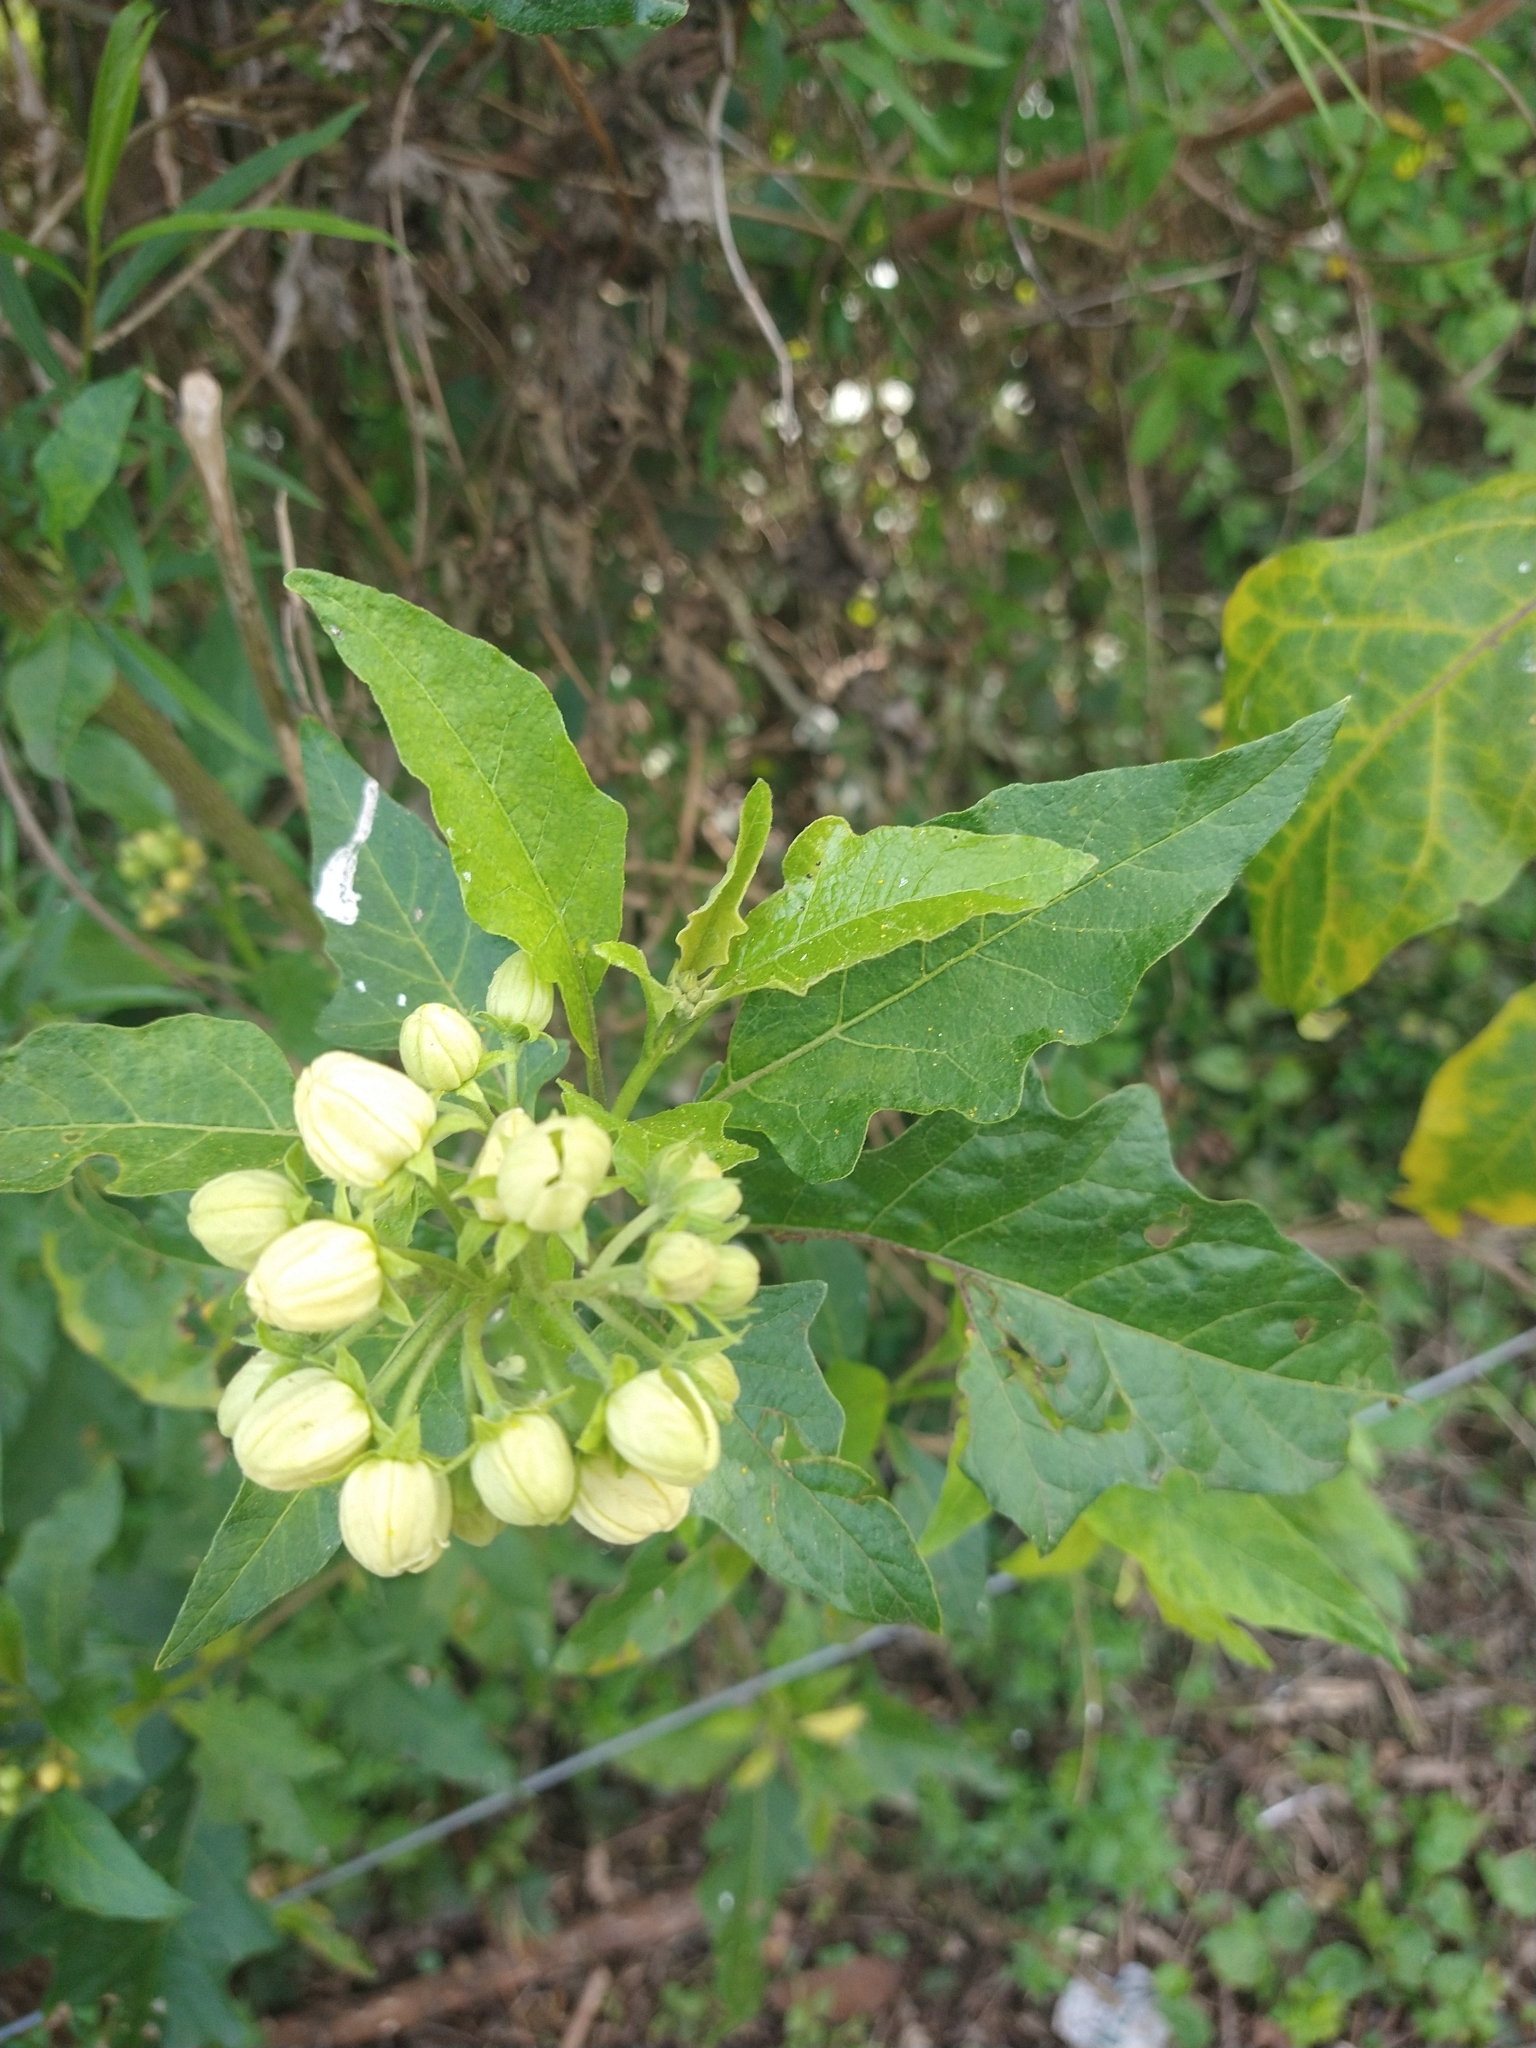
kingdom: Plantae
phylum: Tracheophyta
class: Magnoliopsida
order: Solanales
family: Solanaceae
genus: Solanum
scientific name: Solanum bonariense
